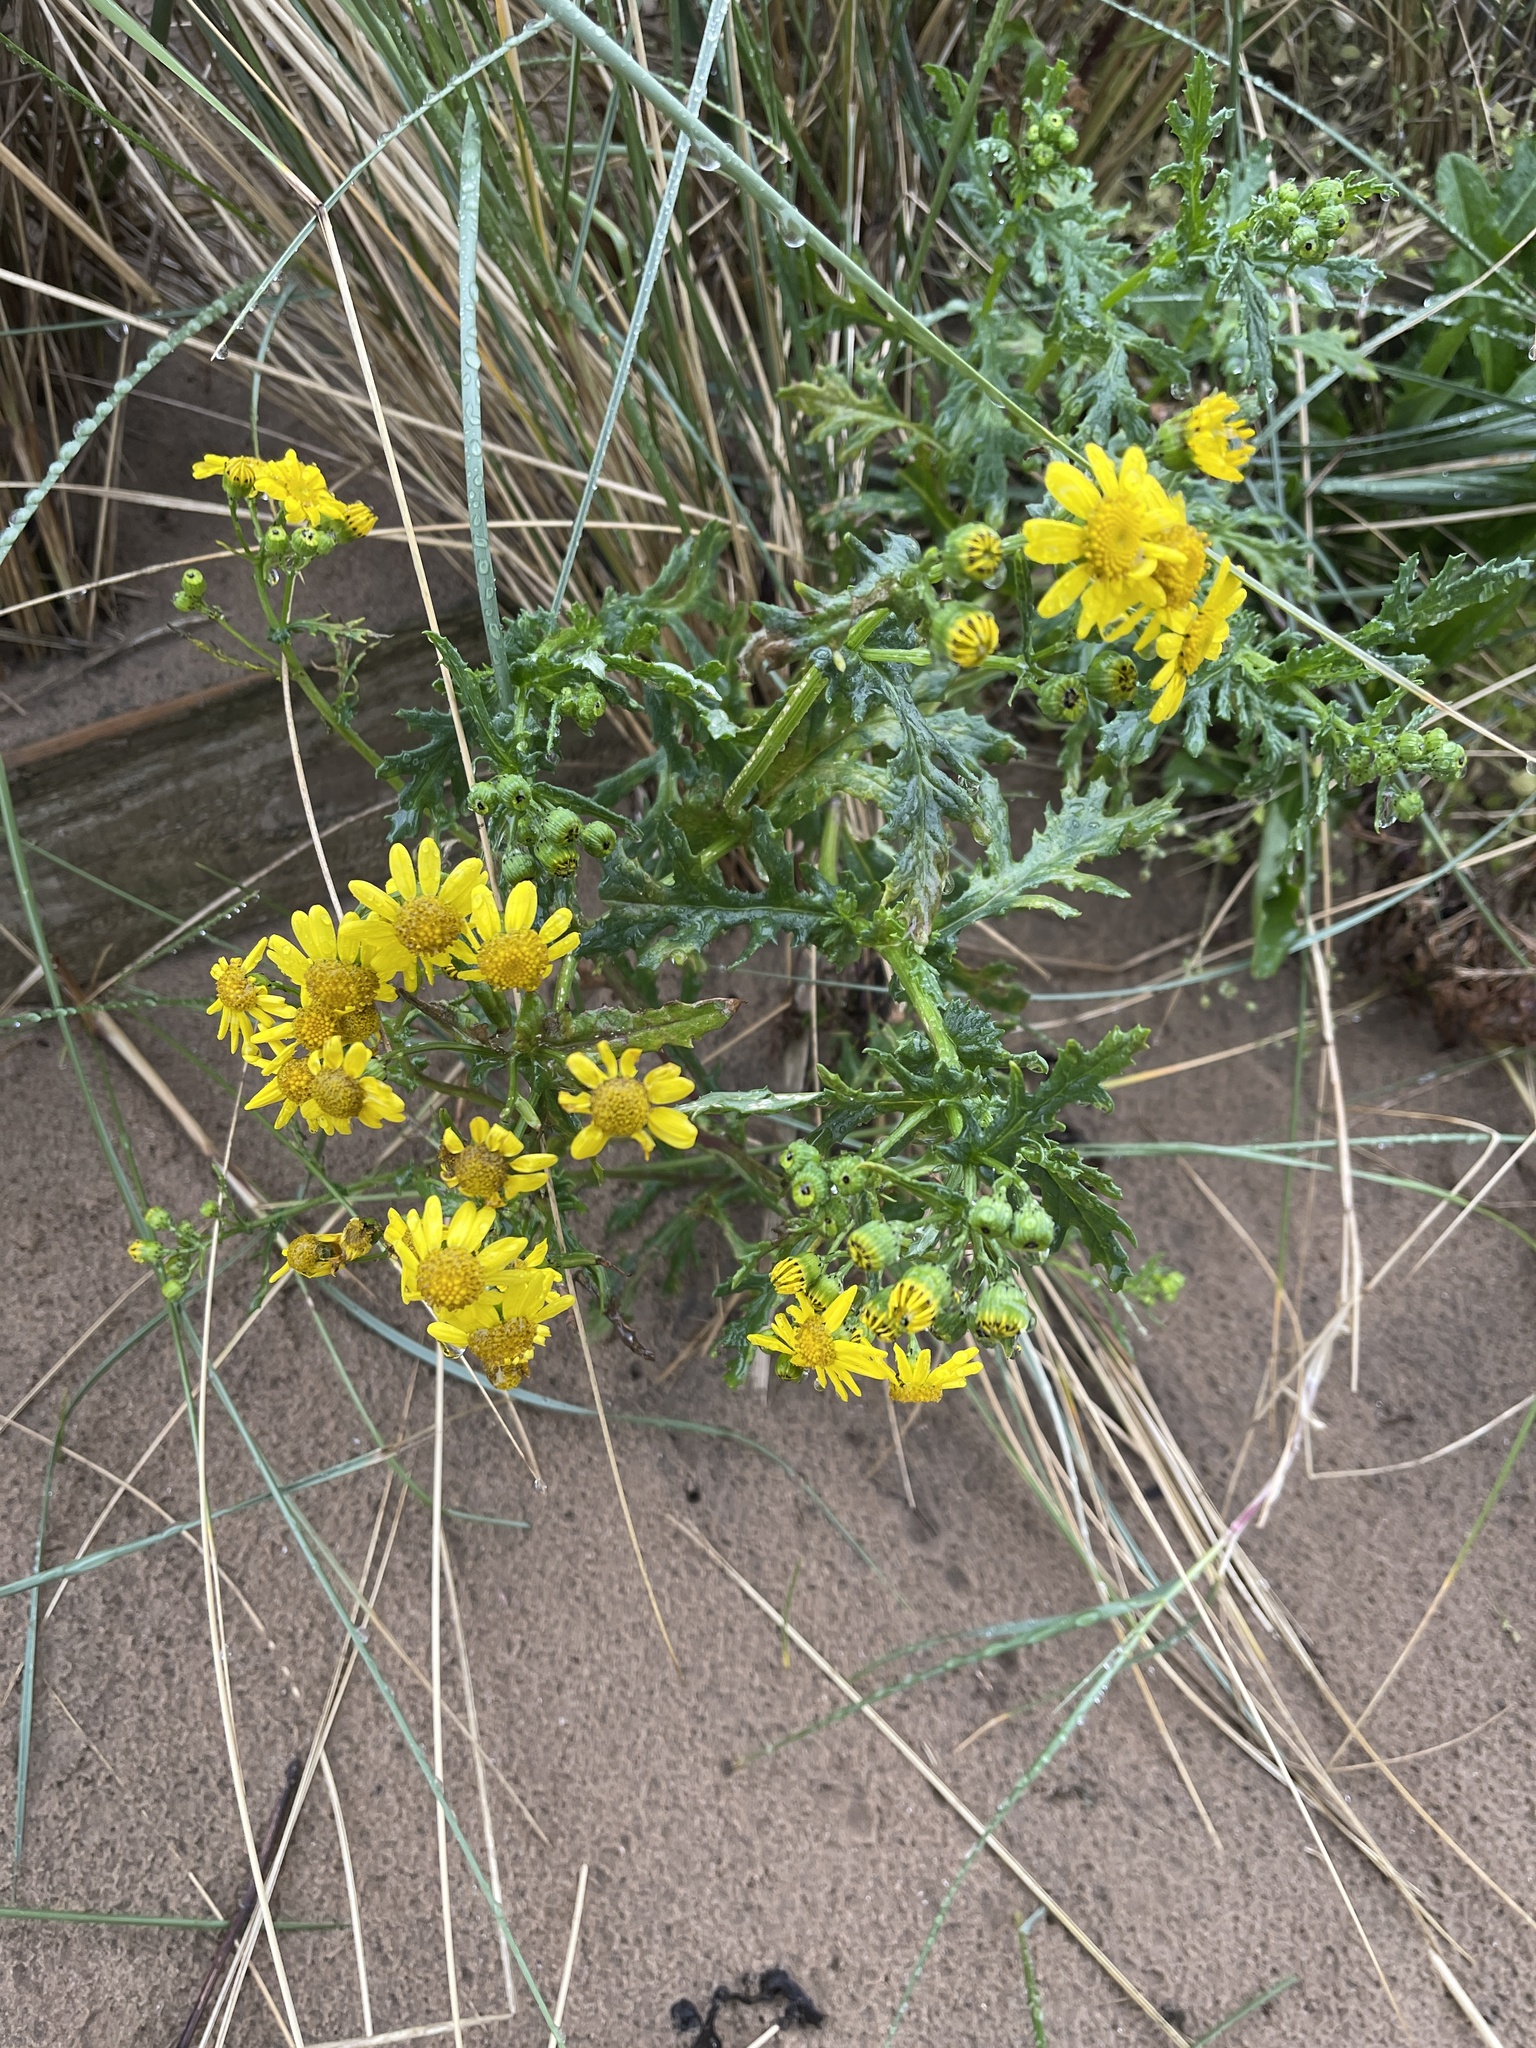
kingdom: Plantae
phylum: Tracheophyta
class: Magnoliopsida
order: Asterales
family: Asteraceae
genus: Senecio
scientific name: Senecio squalidus
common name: Oxford ragwort
